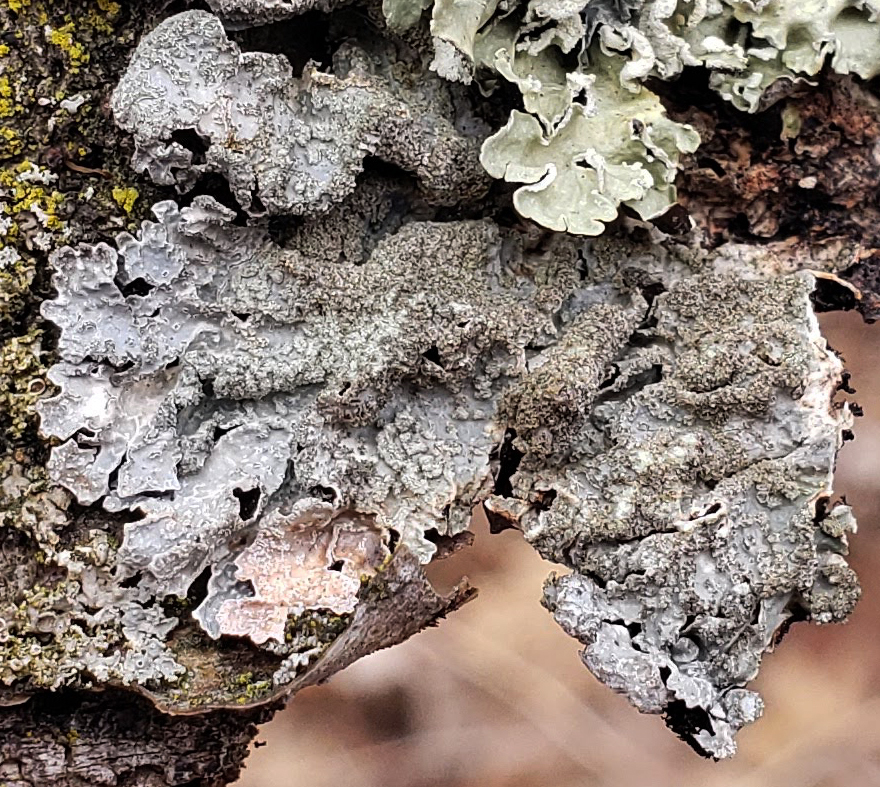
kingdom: Fungi
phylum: Ascomycota
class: Lecanoromycetes
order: Lecanorales
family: Parmeliaceae
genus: Parmelia
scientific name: Parmelia sulcata
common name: Netted shield lichen
